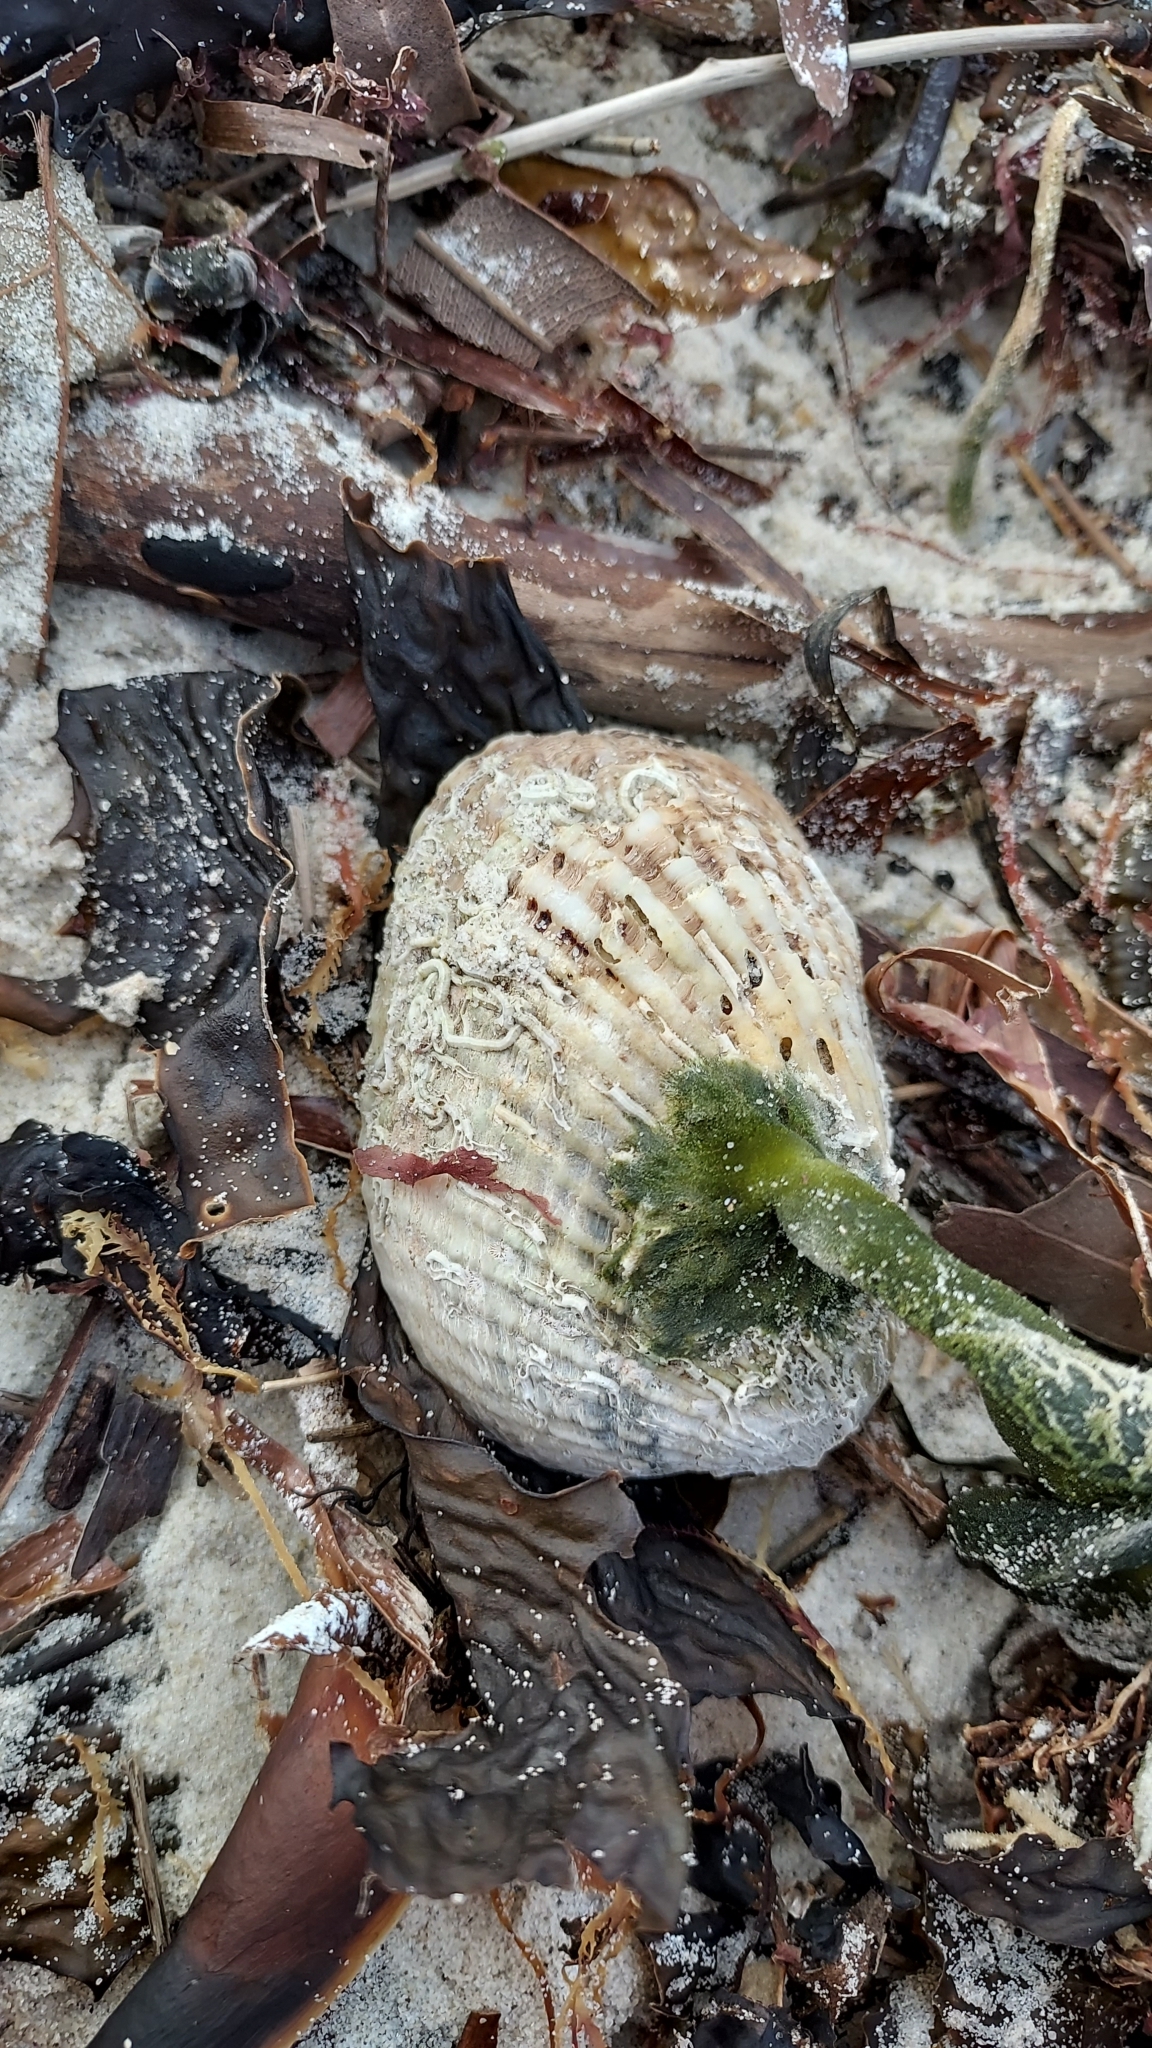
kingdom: Animalia
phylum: Mollusca
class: Bivalvia
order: Arcida
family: Arcidae
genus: Anadara
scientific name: Anadara trapezia
